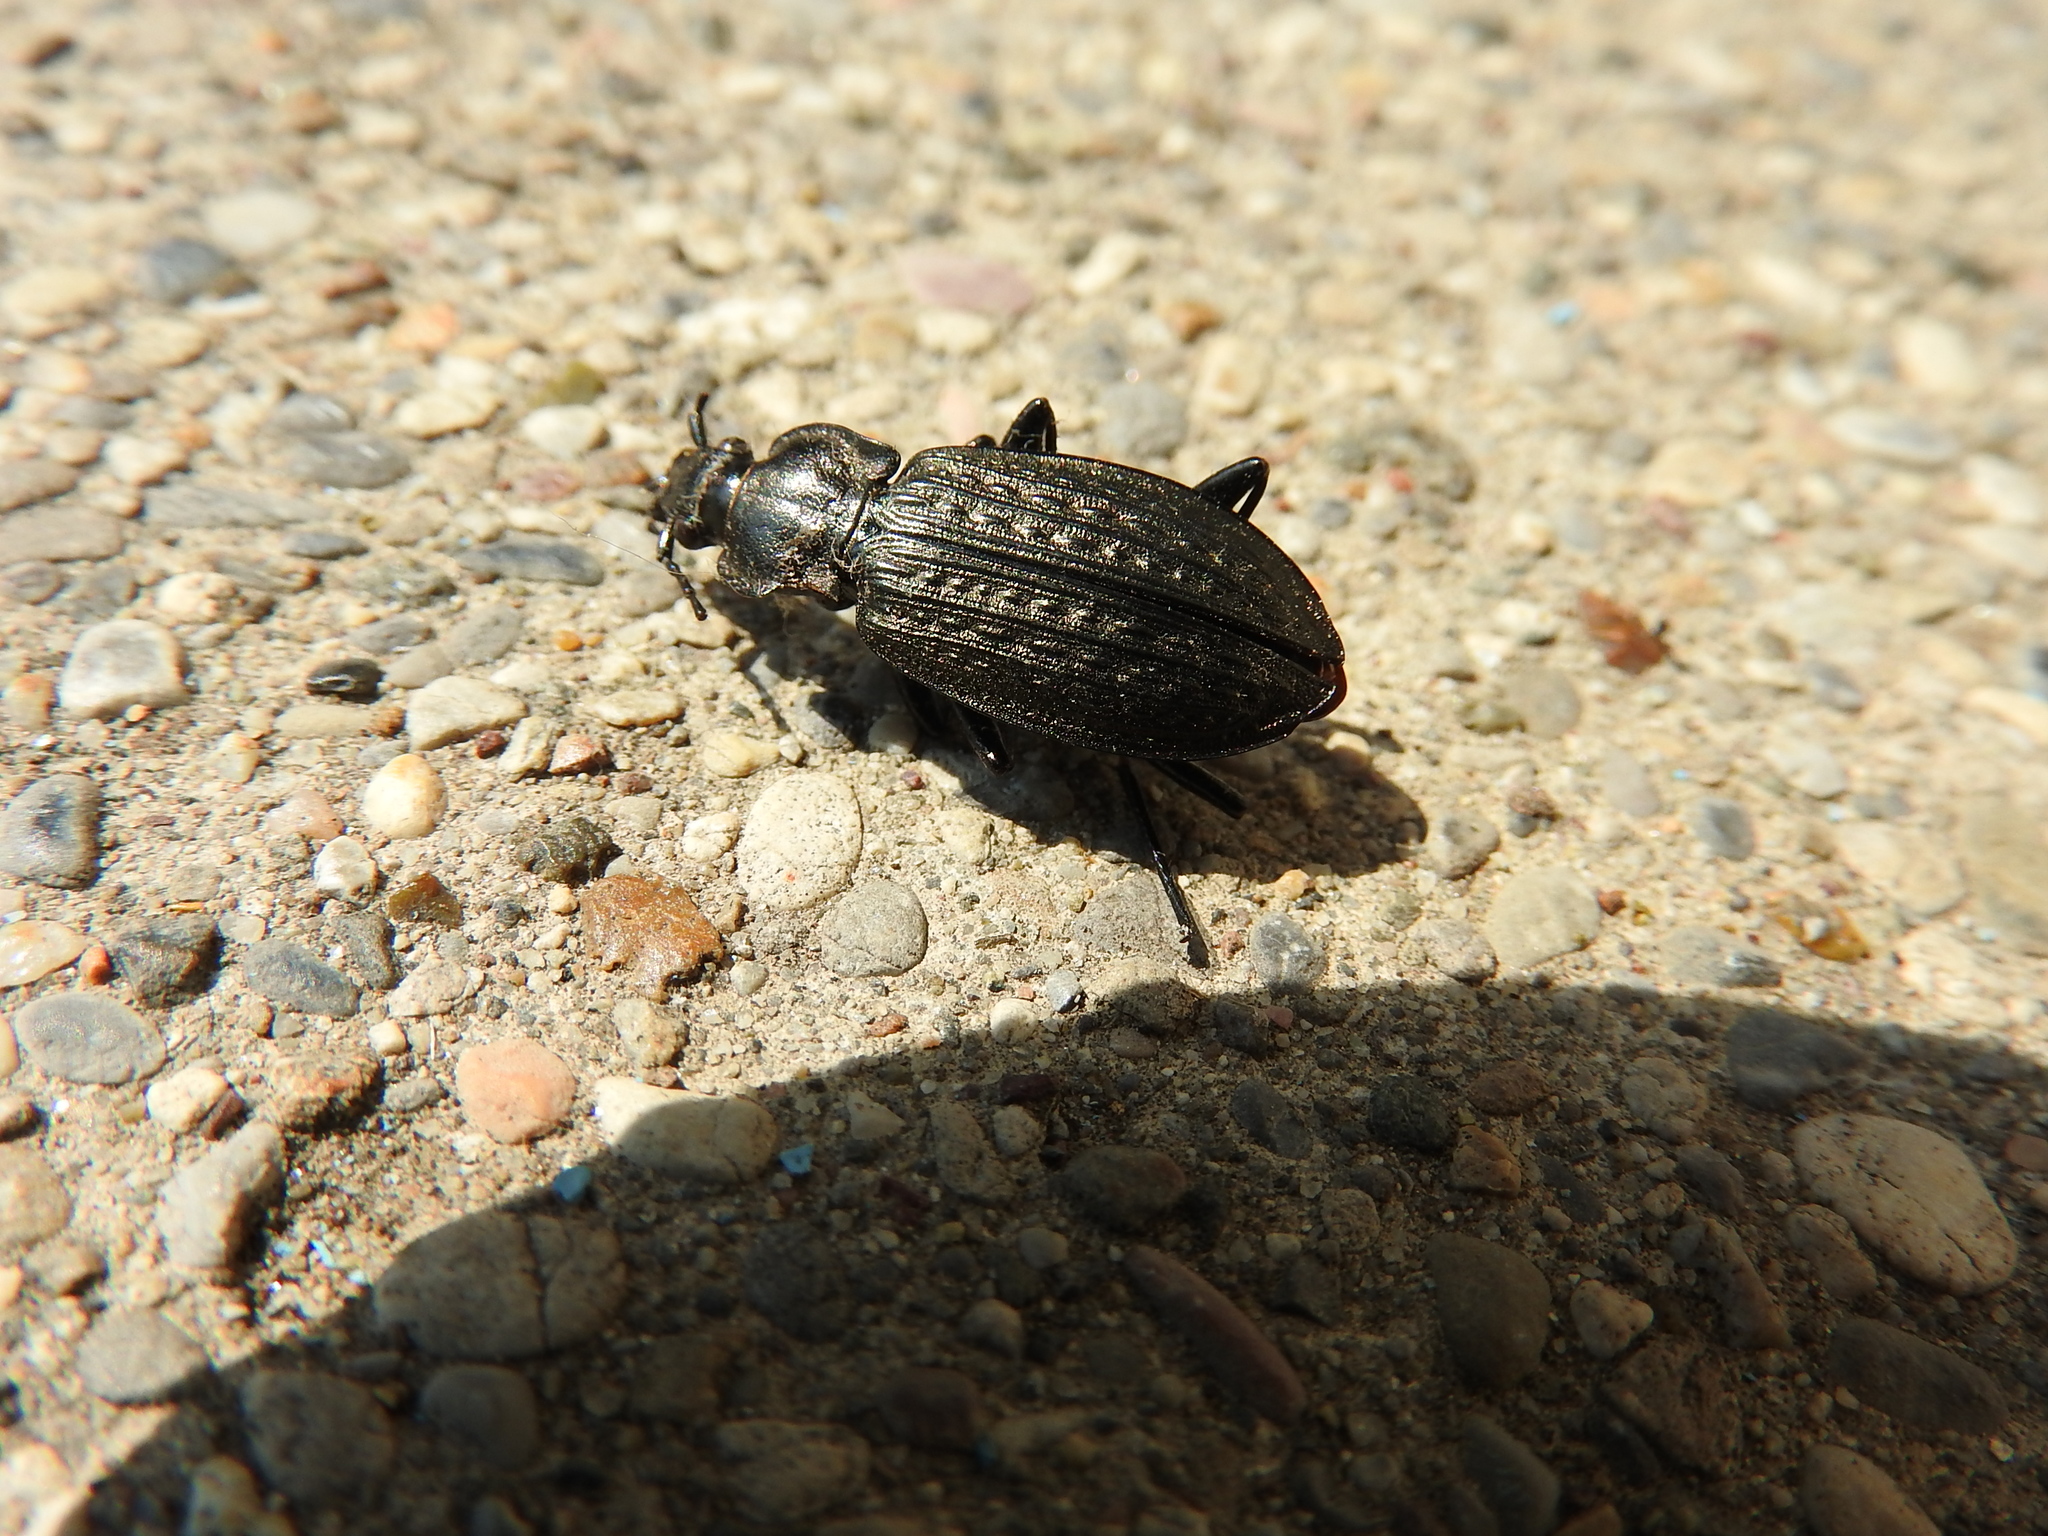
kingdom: Animalia
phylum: Arthropoda
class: Insecta
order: Coleoptera
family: Carabidae
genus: Carabus
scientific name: Carabus granulatus
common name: Granulate ground beetle
